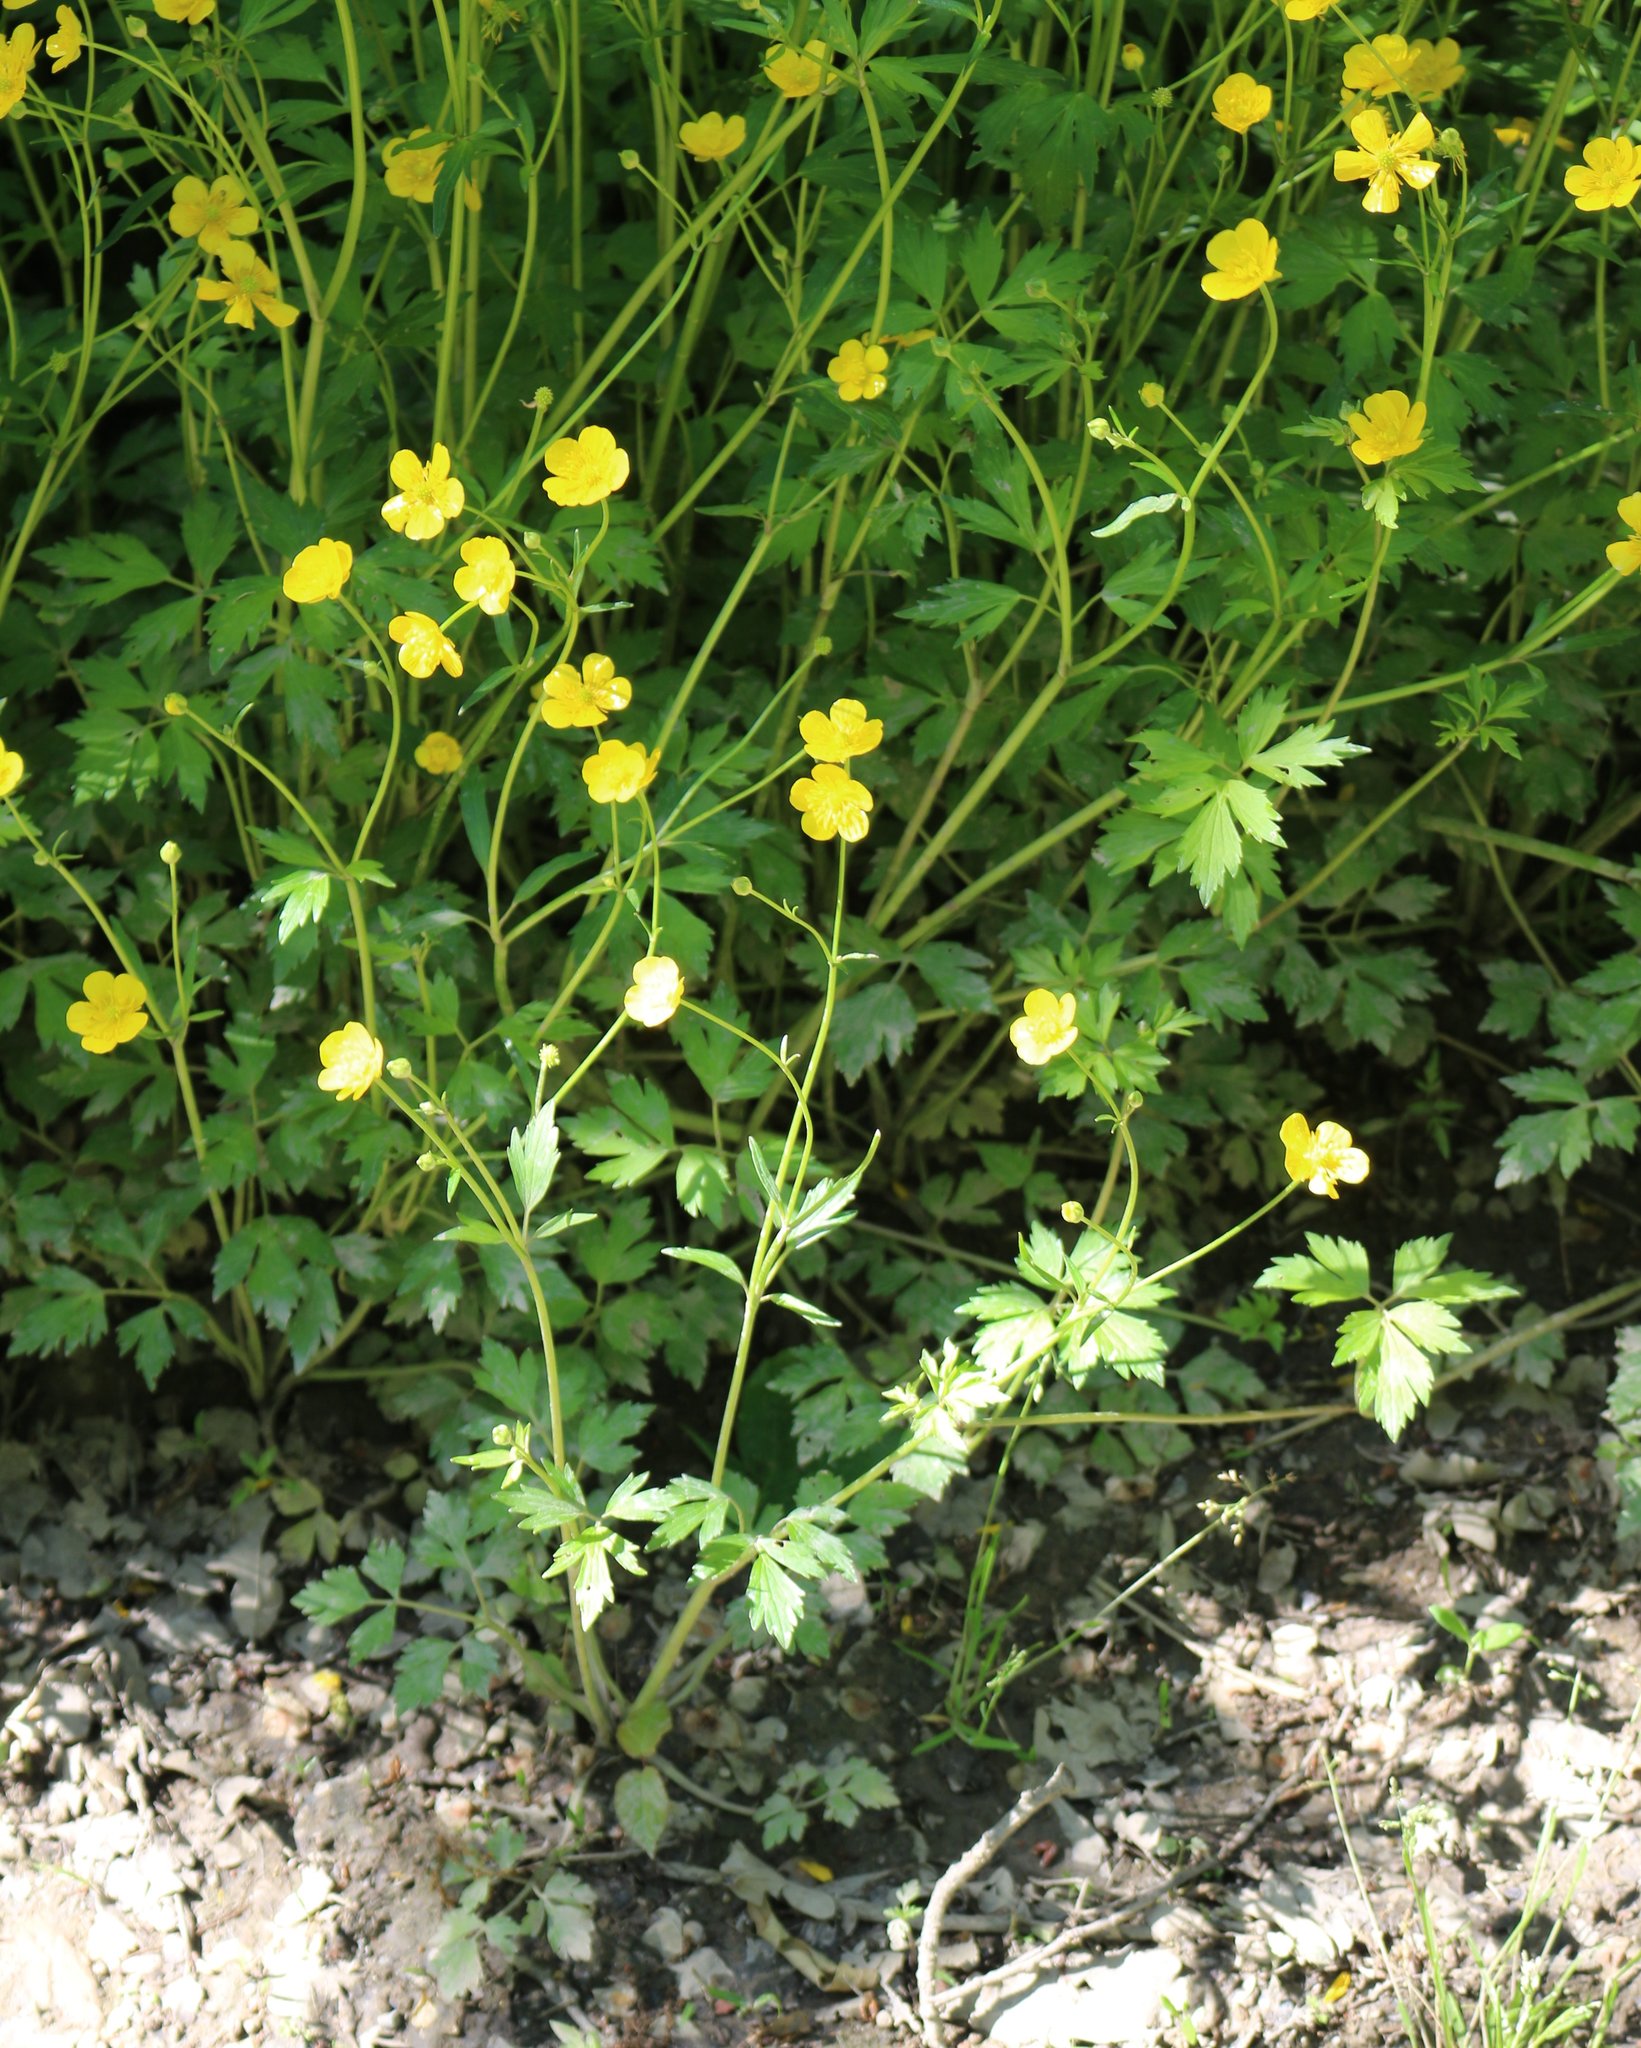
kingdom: Plantae
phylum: Tracheophyta
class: Magnoliopsida
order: Ranunculales
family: Ranunculaceae
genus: Ranunculus
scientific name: Ranunculus repens
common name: Creeping buttercup
